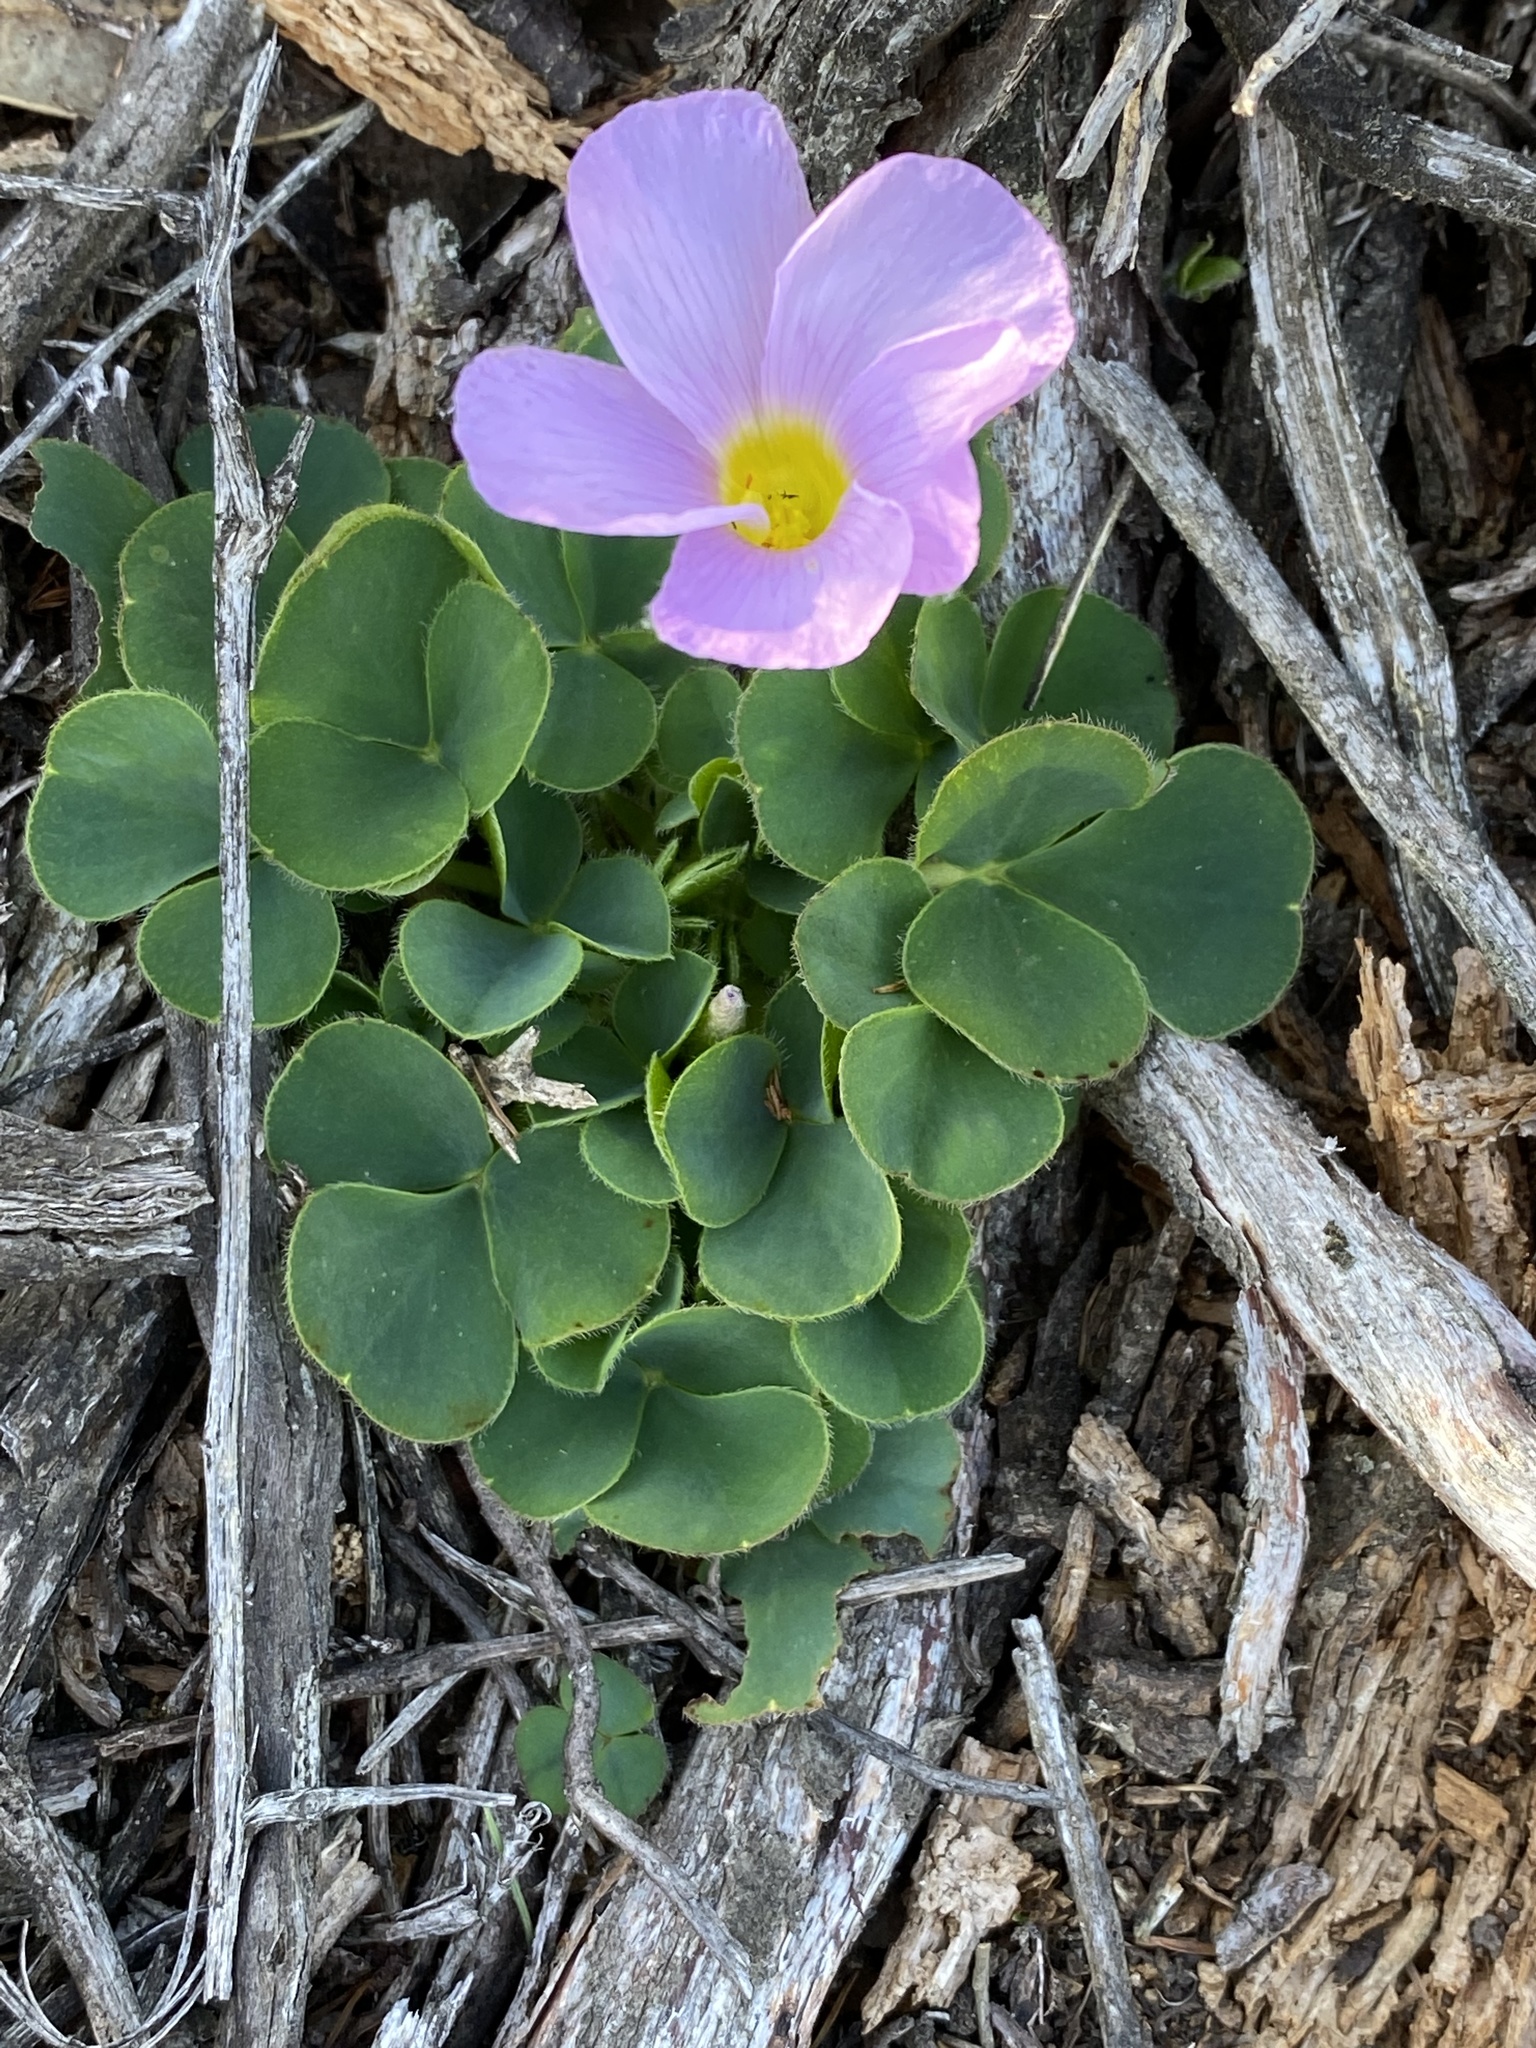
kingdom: Plantae
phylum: Tracheophyta
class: Magnoliopsida
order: Oxalidales
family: Oxalidaceae
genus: Oxalis
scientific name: Oxalis purpurea
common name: Purple woodsorrel
